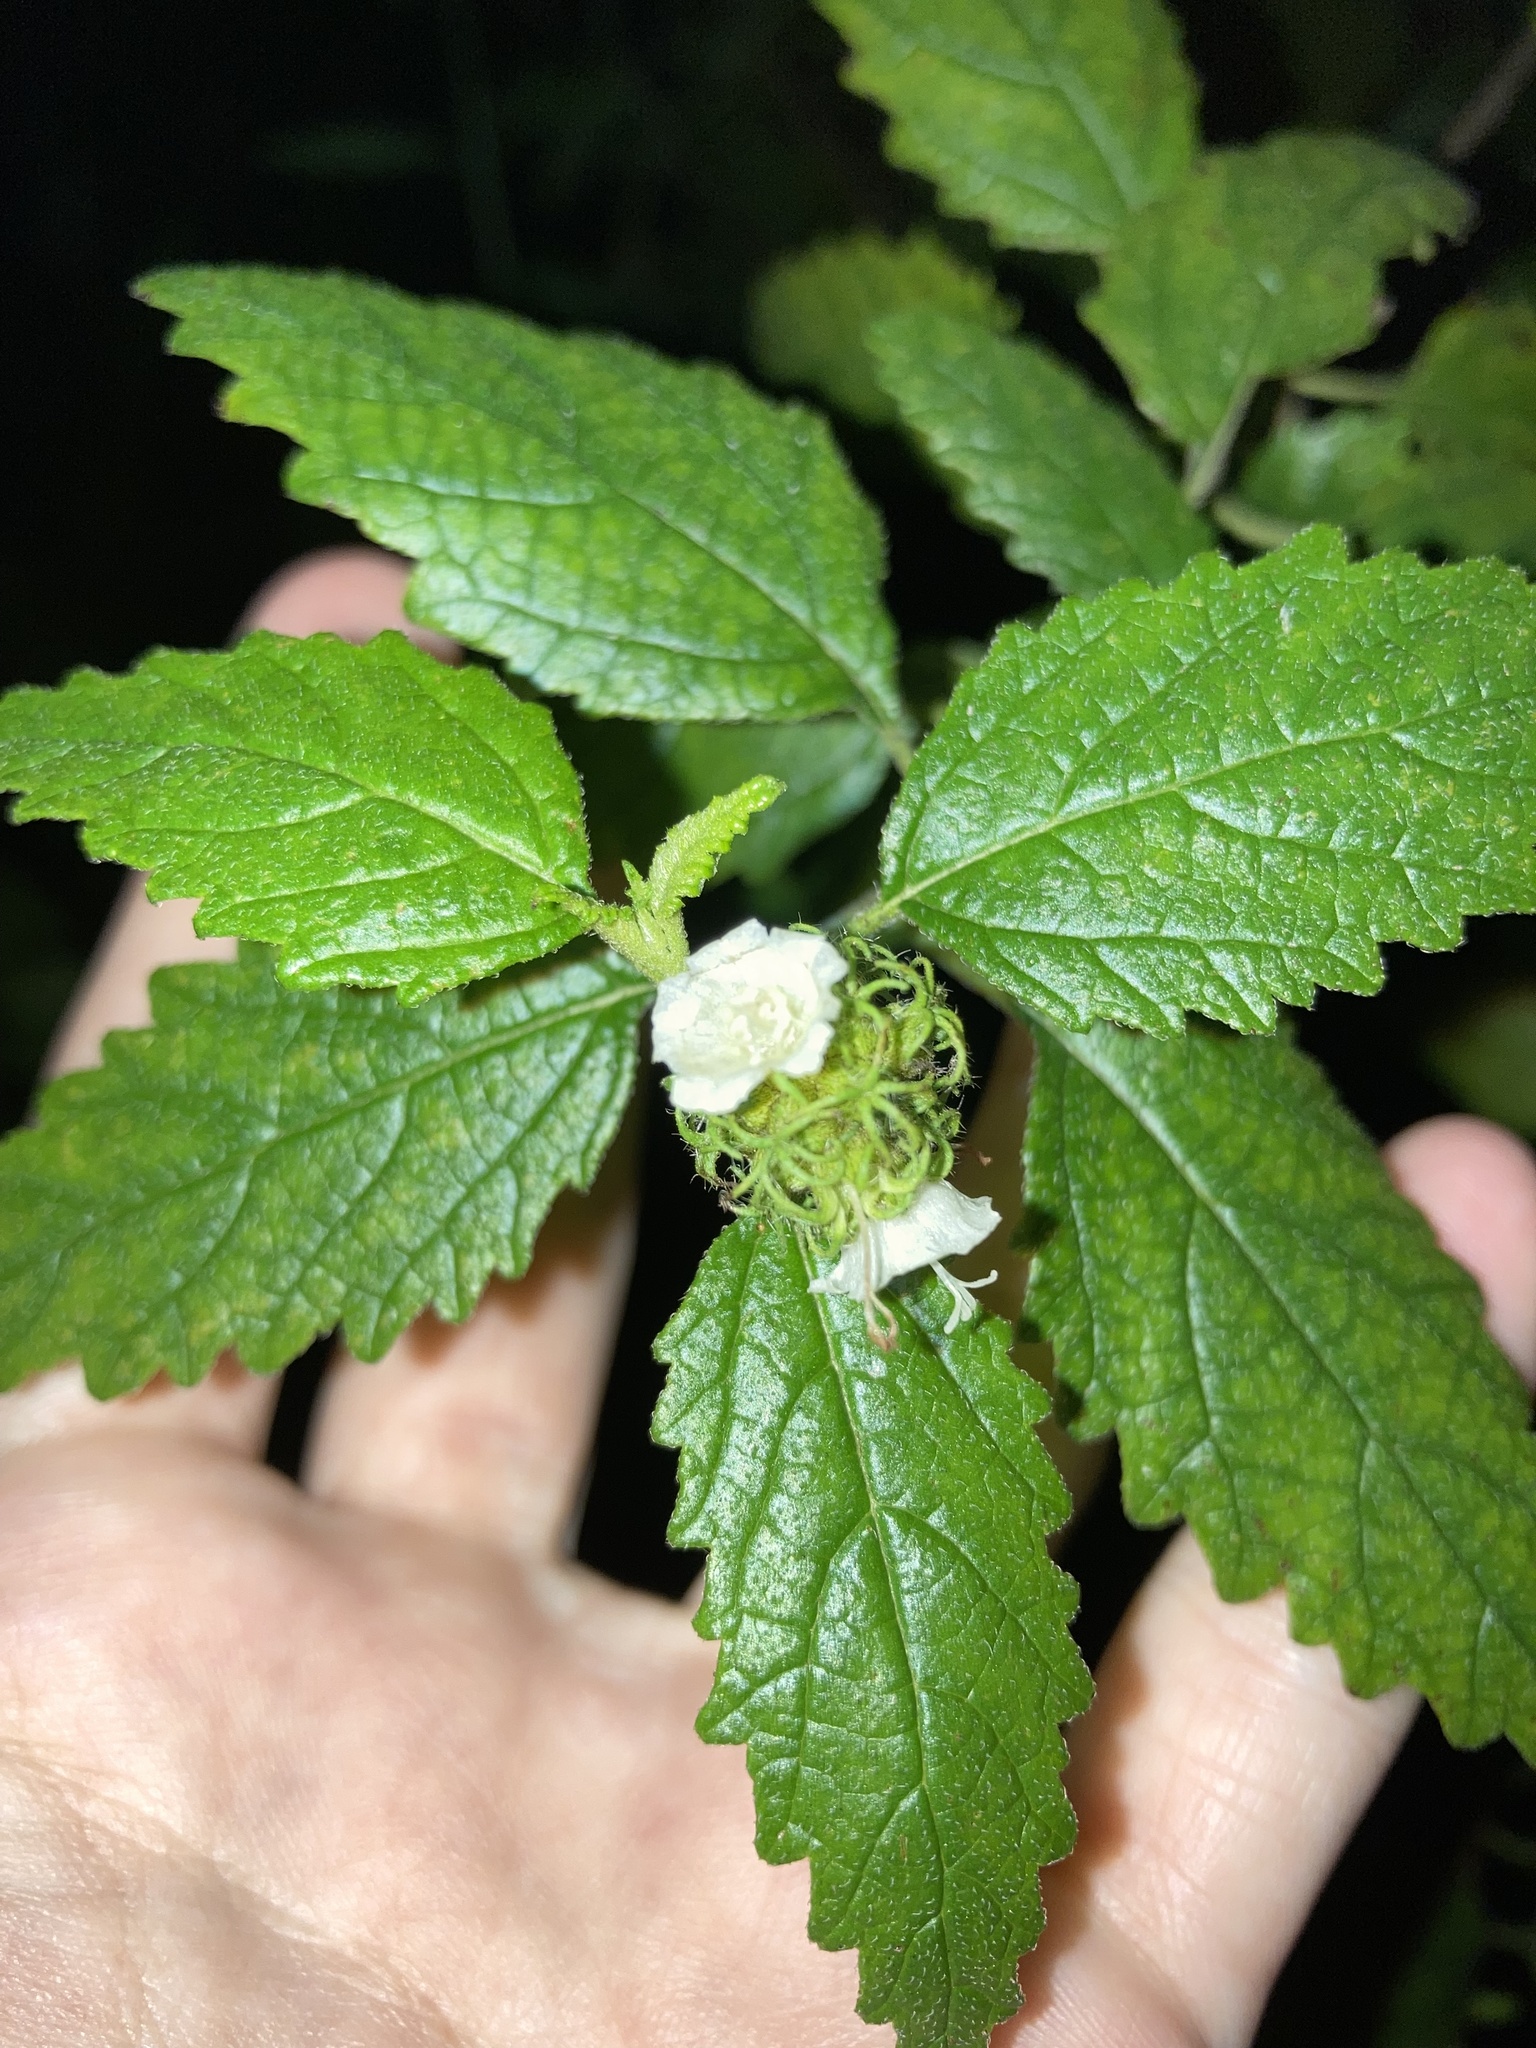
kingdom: Plantae
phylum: Tracheophyta
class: Magnoliopsida
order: Boraginales
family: Cordiaceae
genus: Varronia
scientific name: Varronia
